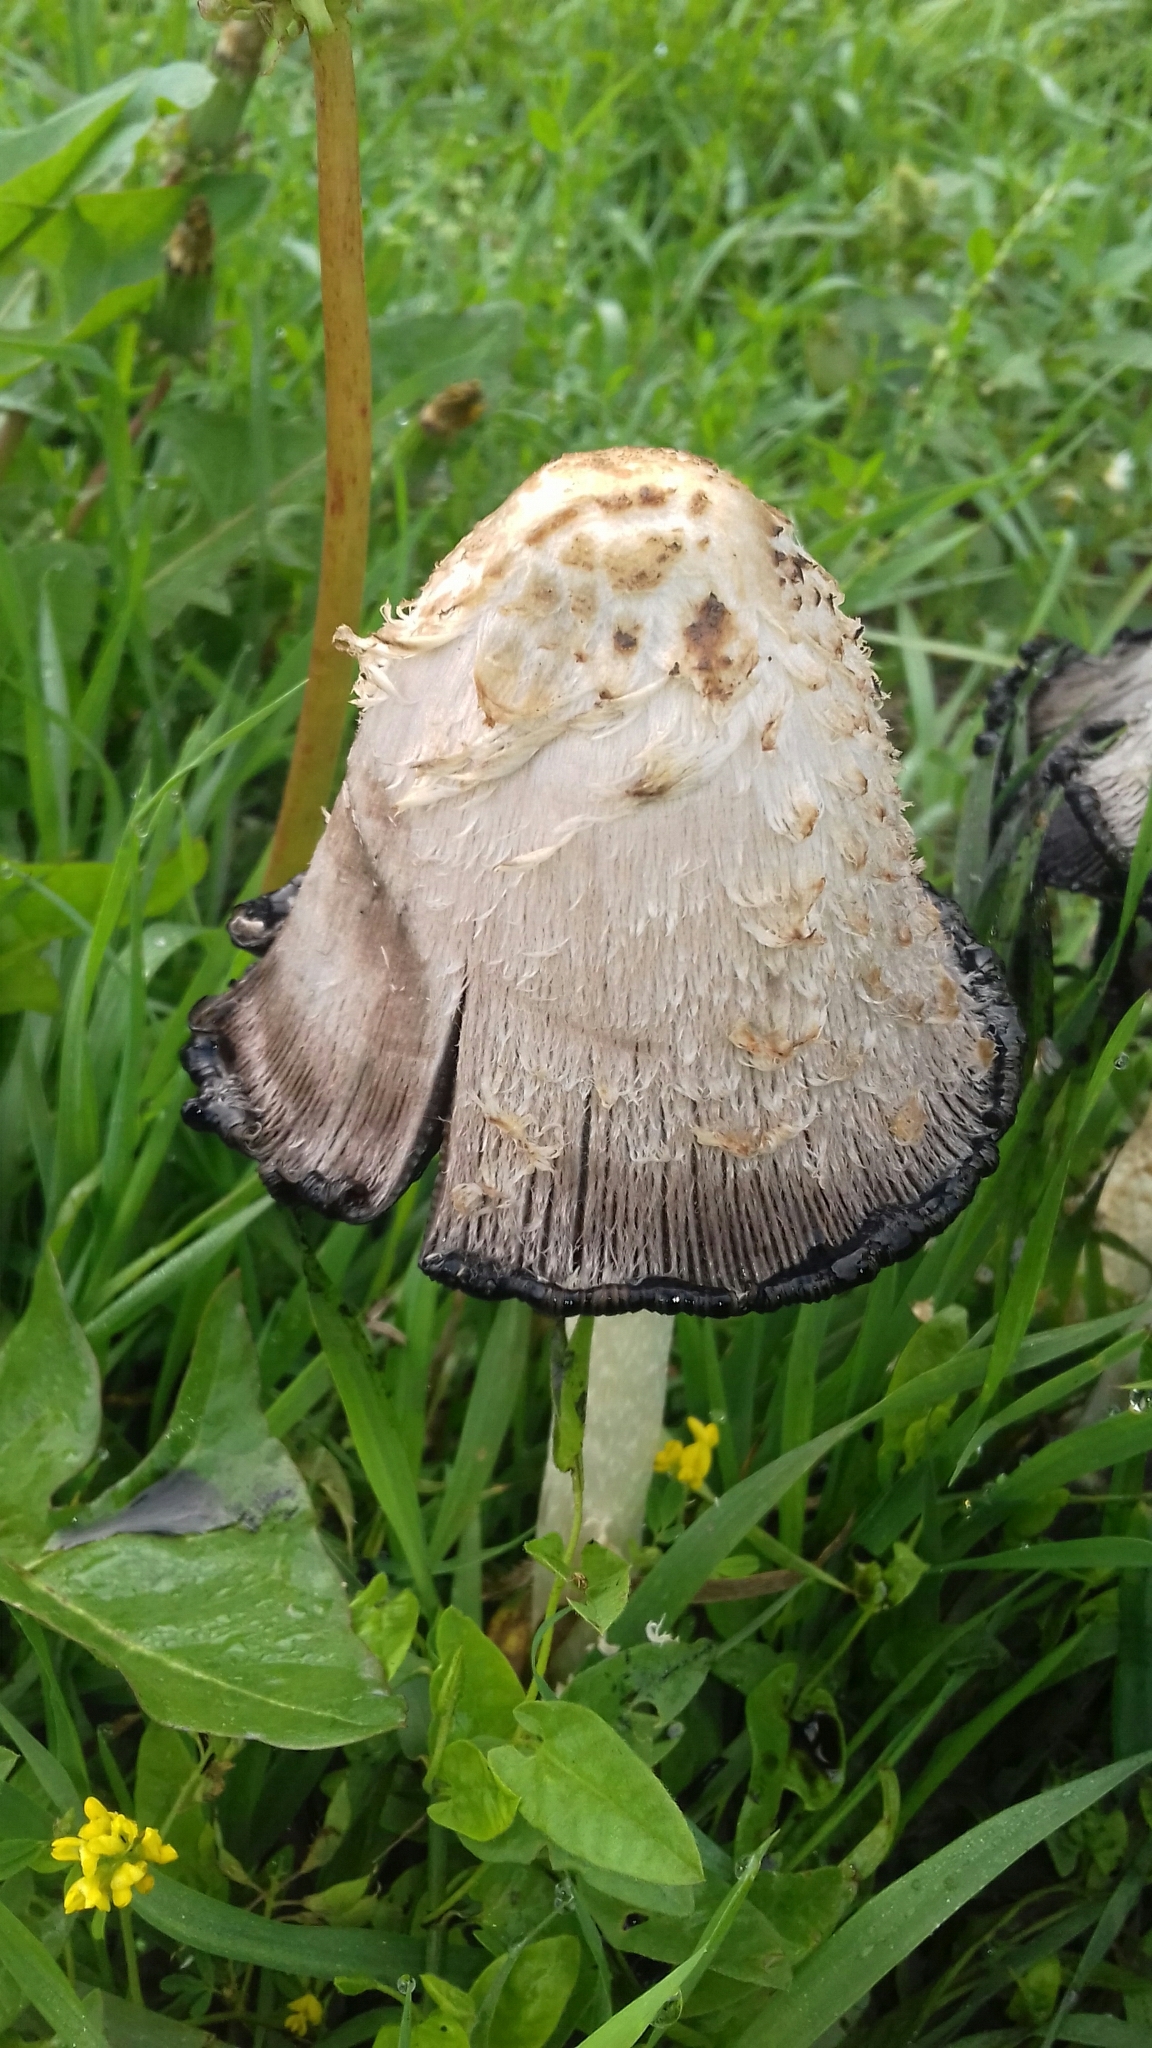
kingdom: Fungi
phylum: Basidiomycota
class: Agaricomycetes
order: Agaricales
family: Agaricaceae
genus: Coprinus
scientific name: Coprinus comatus
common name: Lawyer's wig
